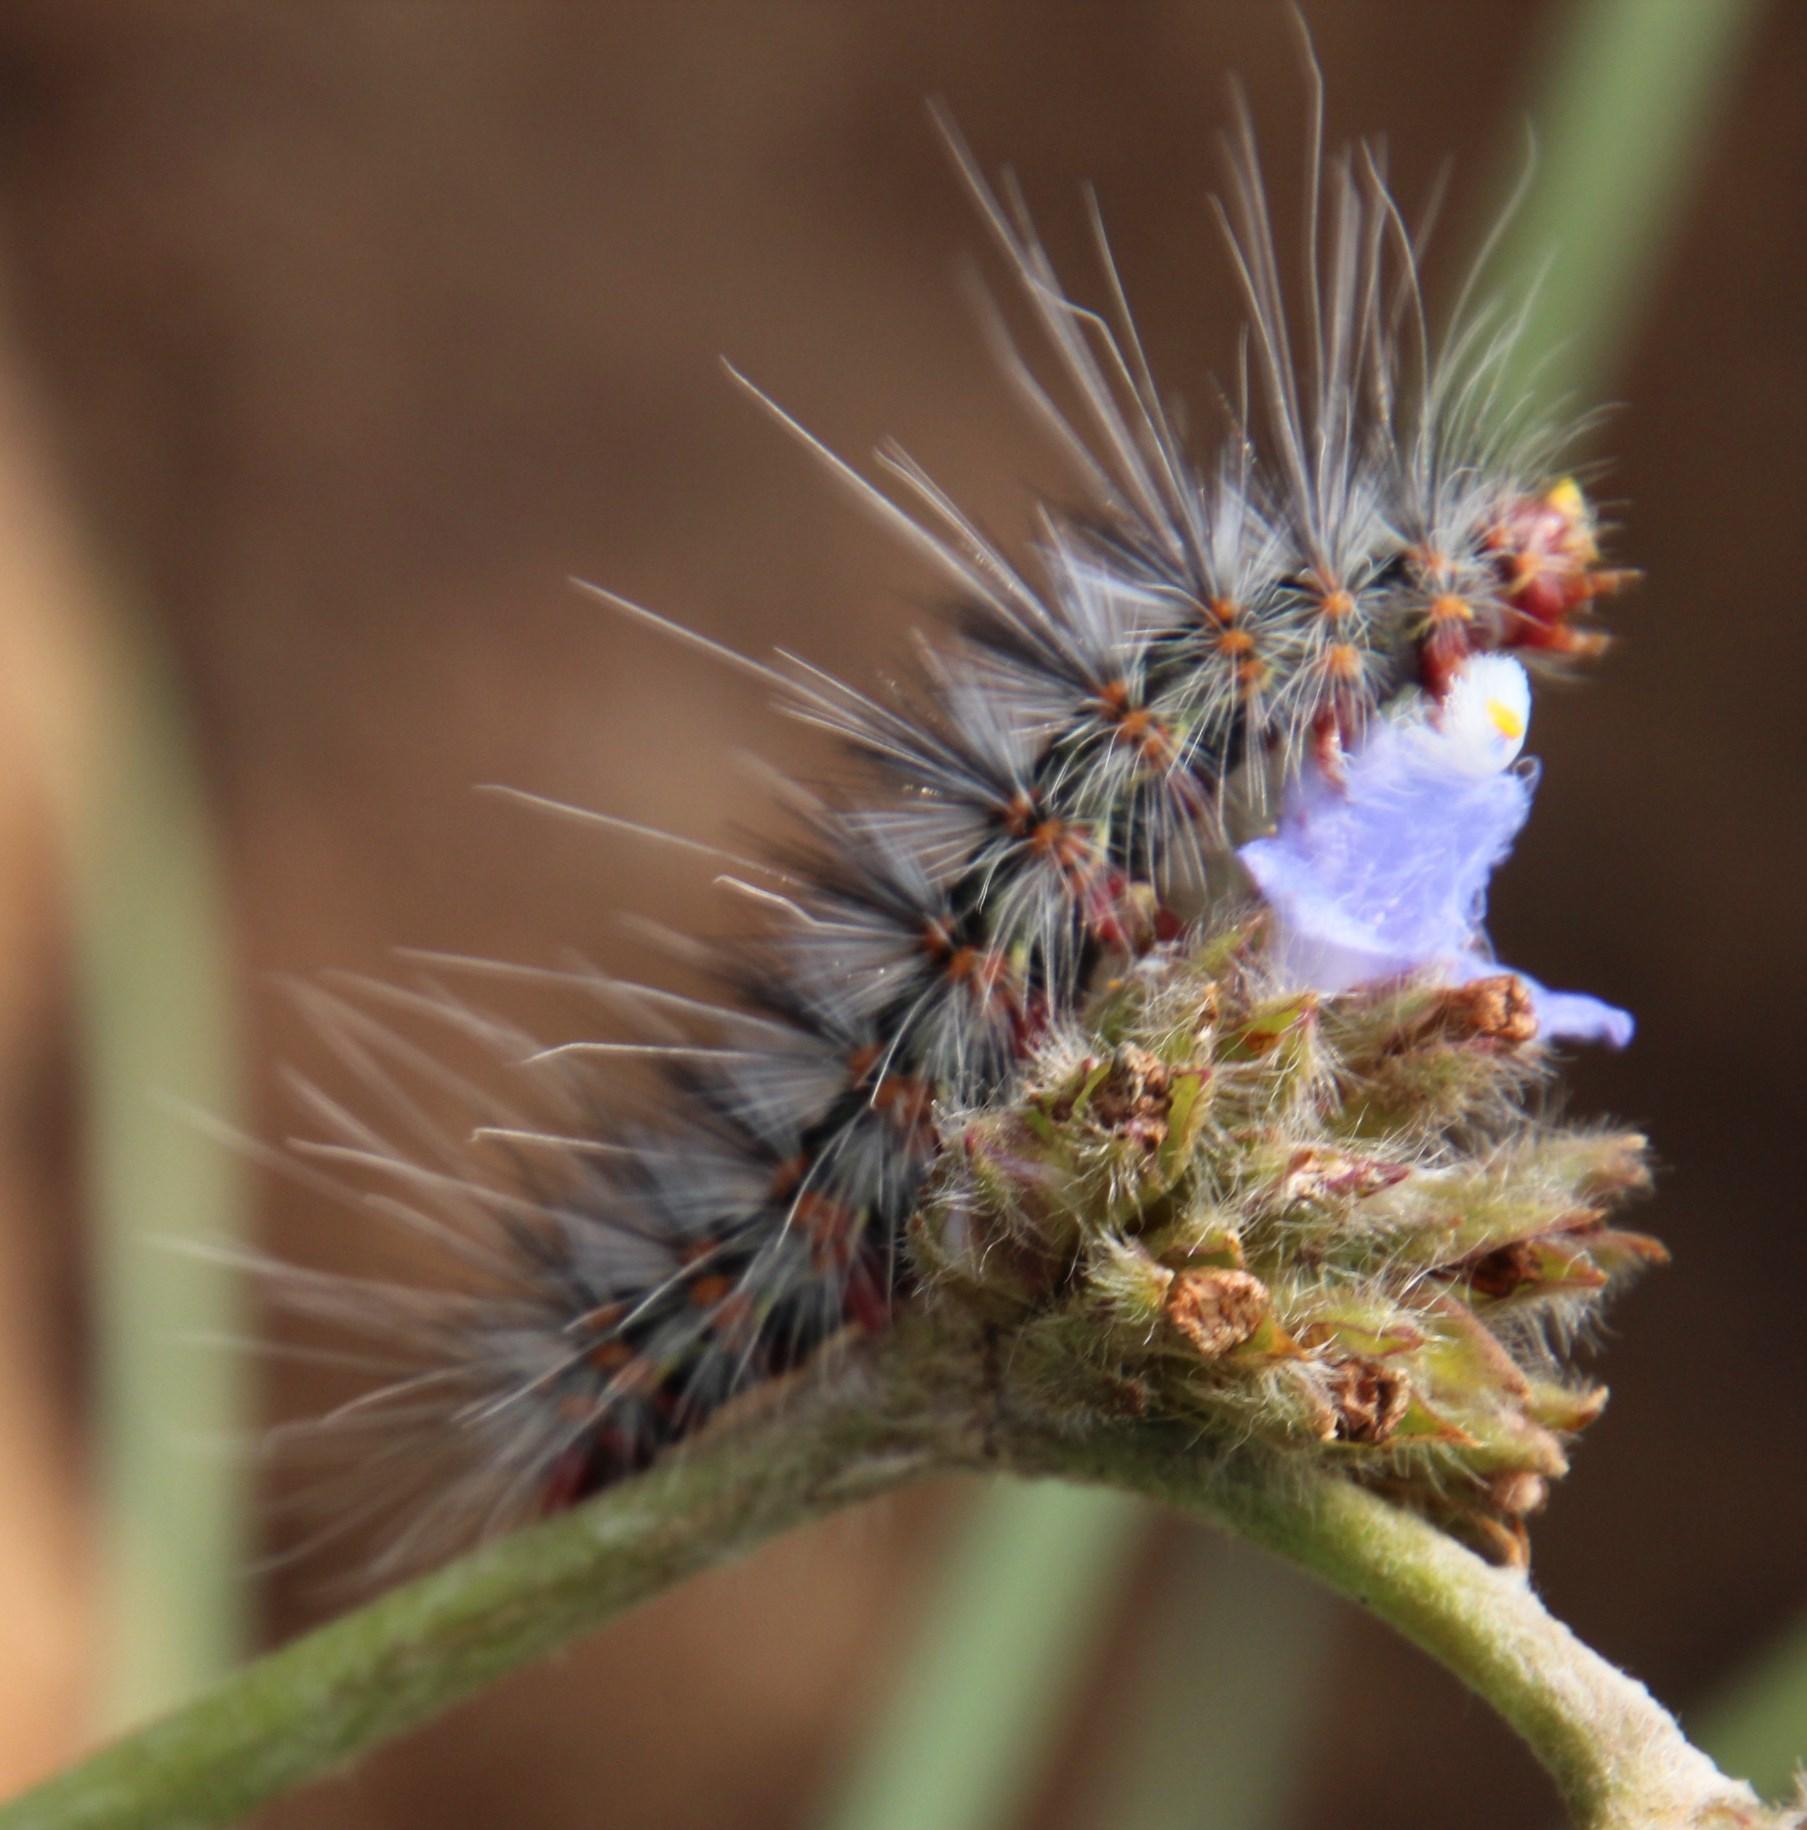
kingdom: Plantae
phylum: Tracheophyta
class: Liliopsida
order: Commelinales
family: Commelinaceae
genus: Cyanotis
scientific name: Cyanotis speciosa
